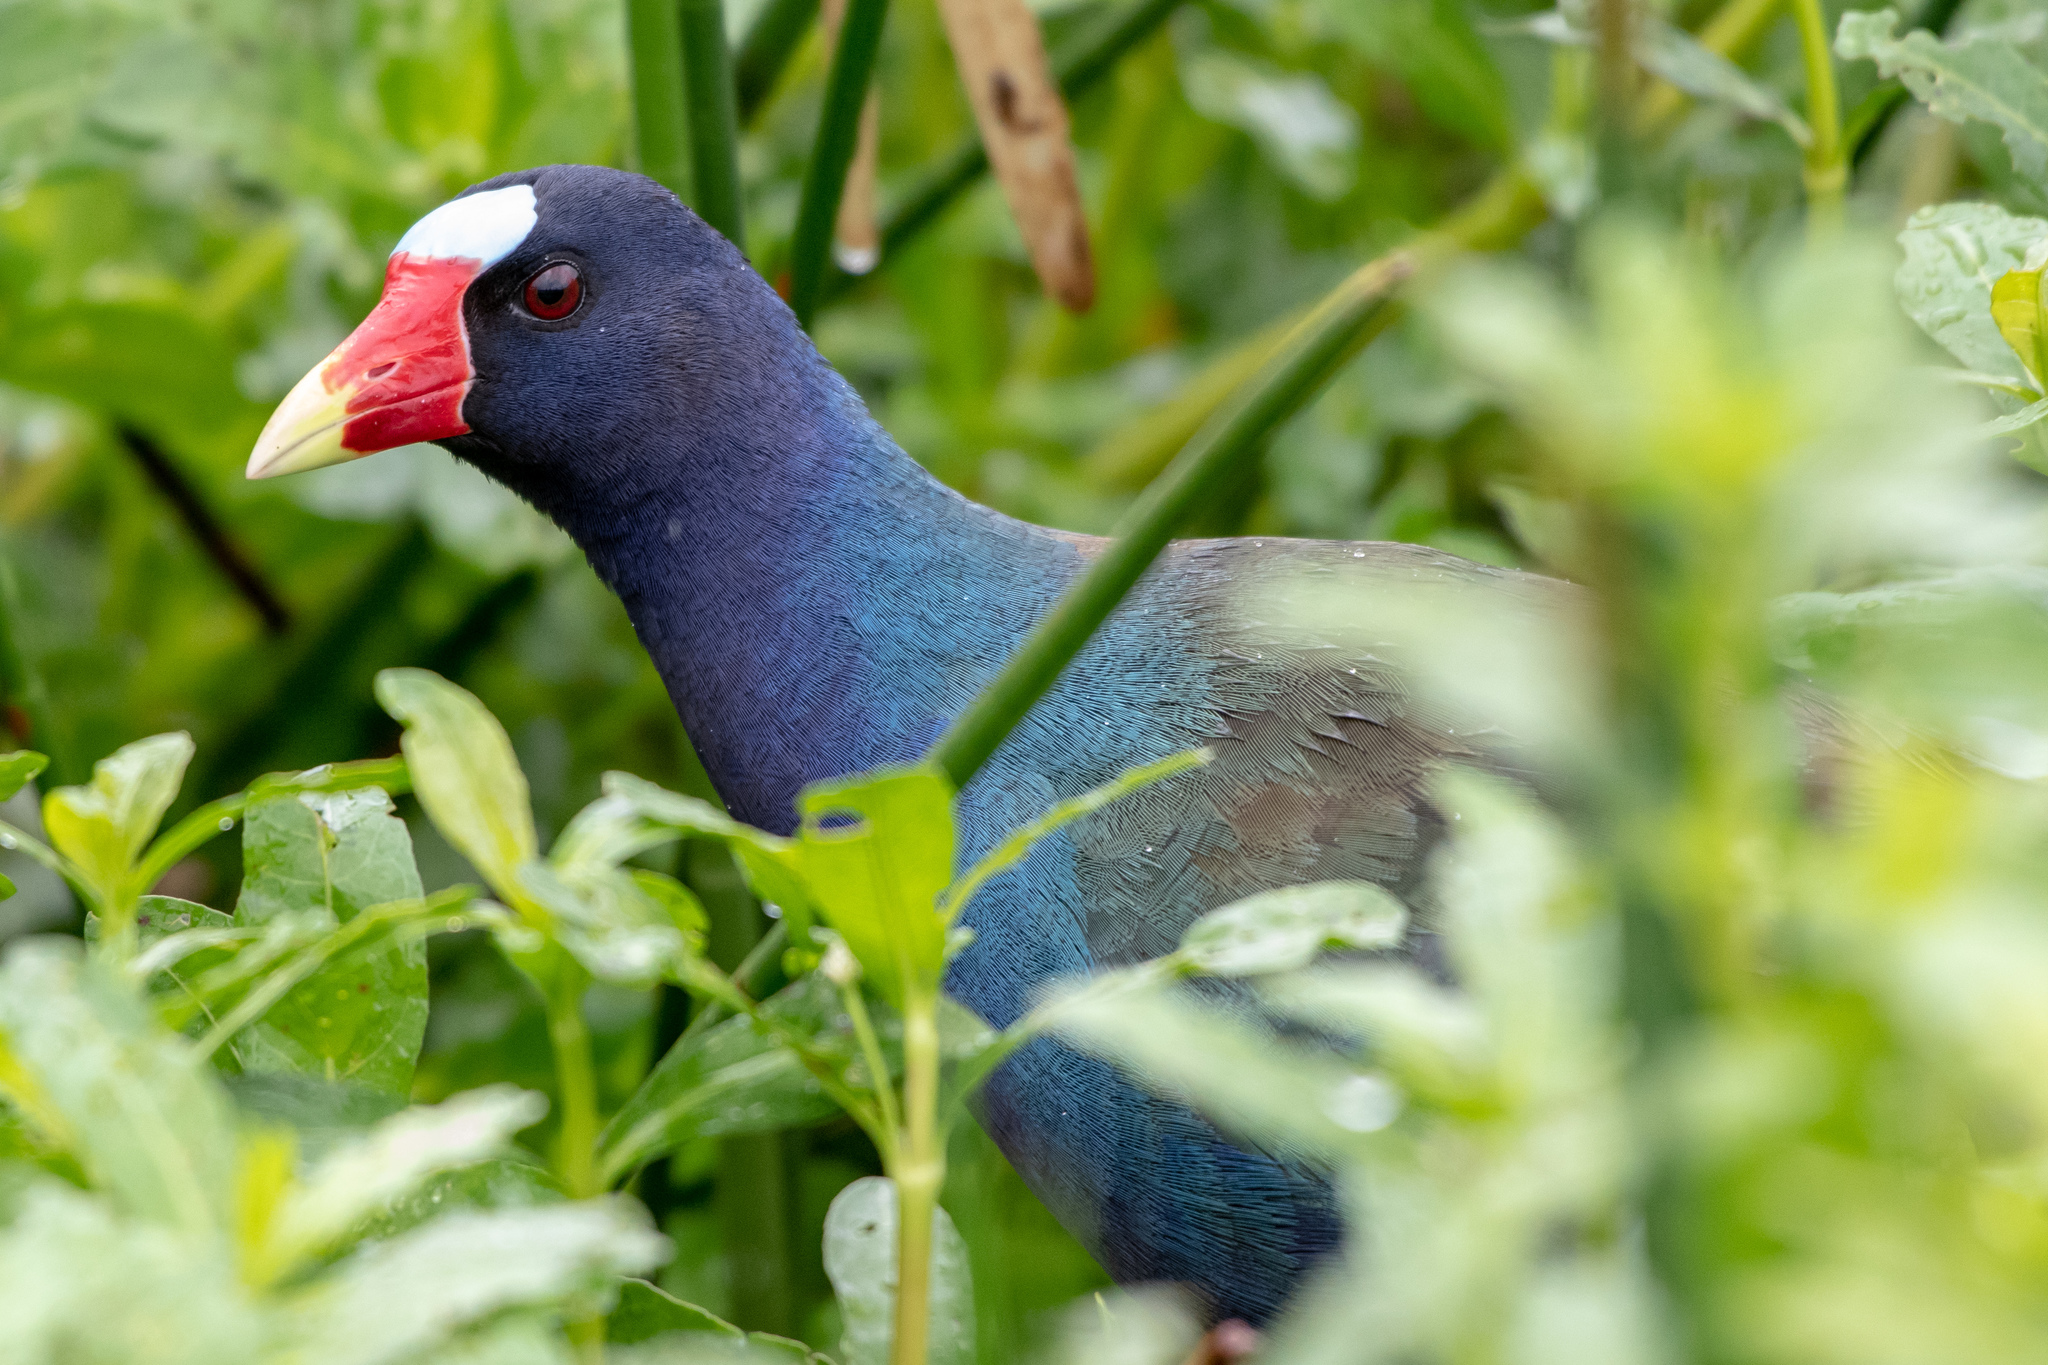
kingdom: Animalia
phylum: Chordata
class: Aves
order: Gruiformes
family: Rallidae
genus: Porphyrio
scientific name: Porphyrio martinica
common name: Purple gallinule
